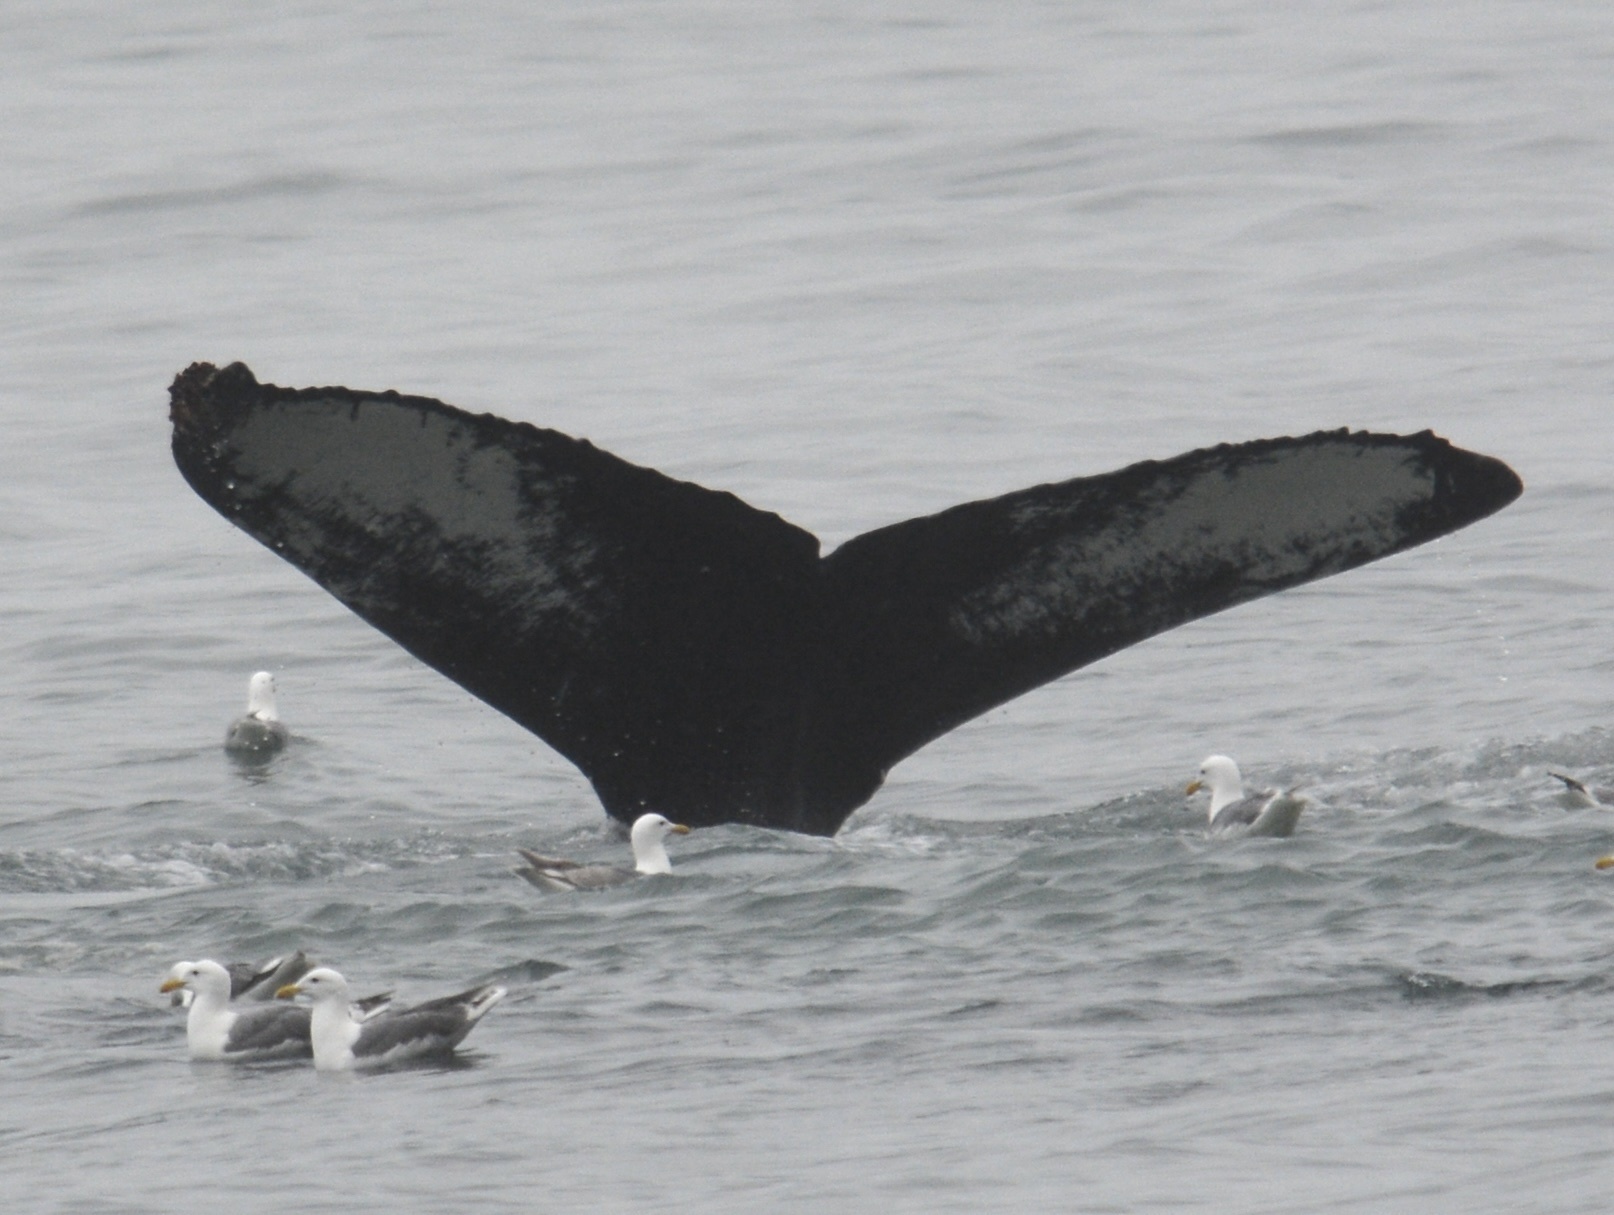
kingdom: Animalia
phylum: Chordata
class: Mammalia
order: Cetacea
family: Balaenopteridae
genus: Megaptera
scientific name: Megaptera novaeangliae
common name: Humpback whale
